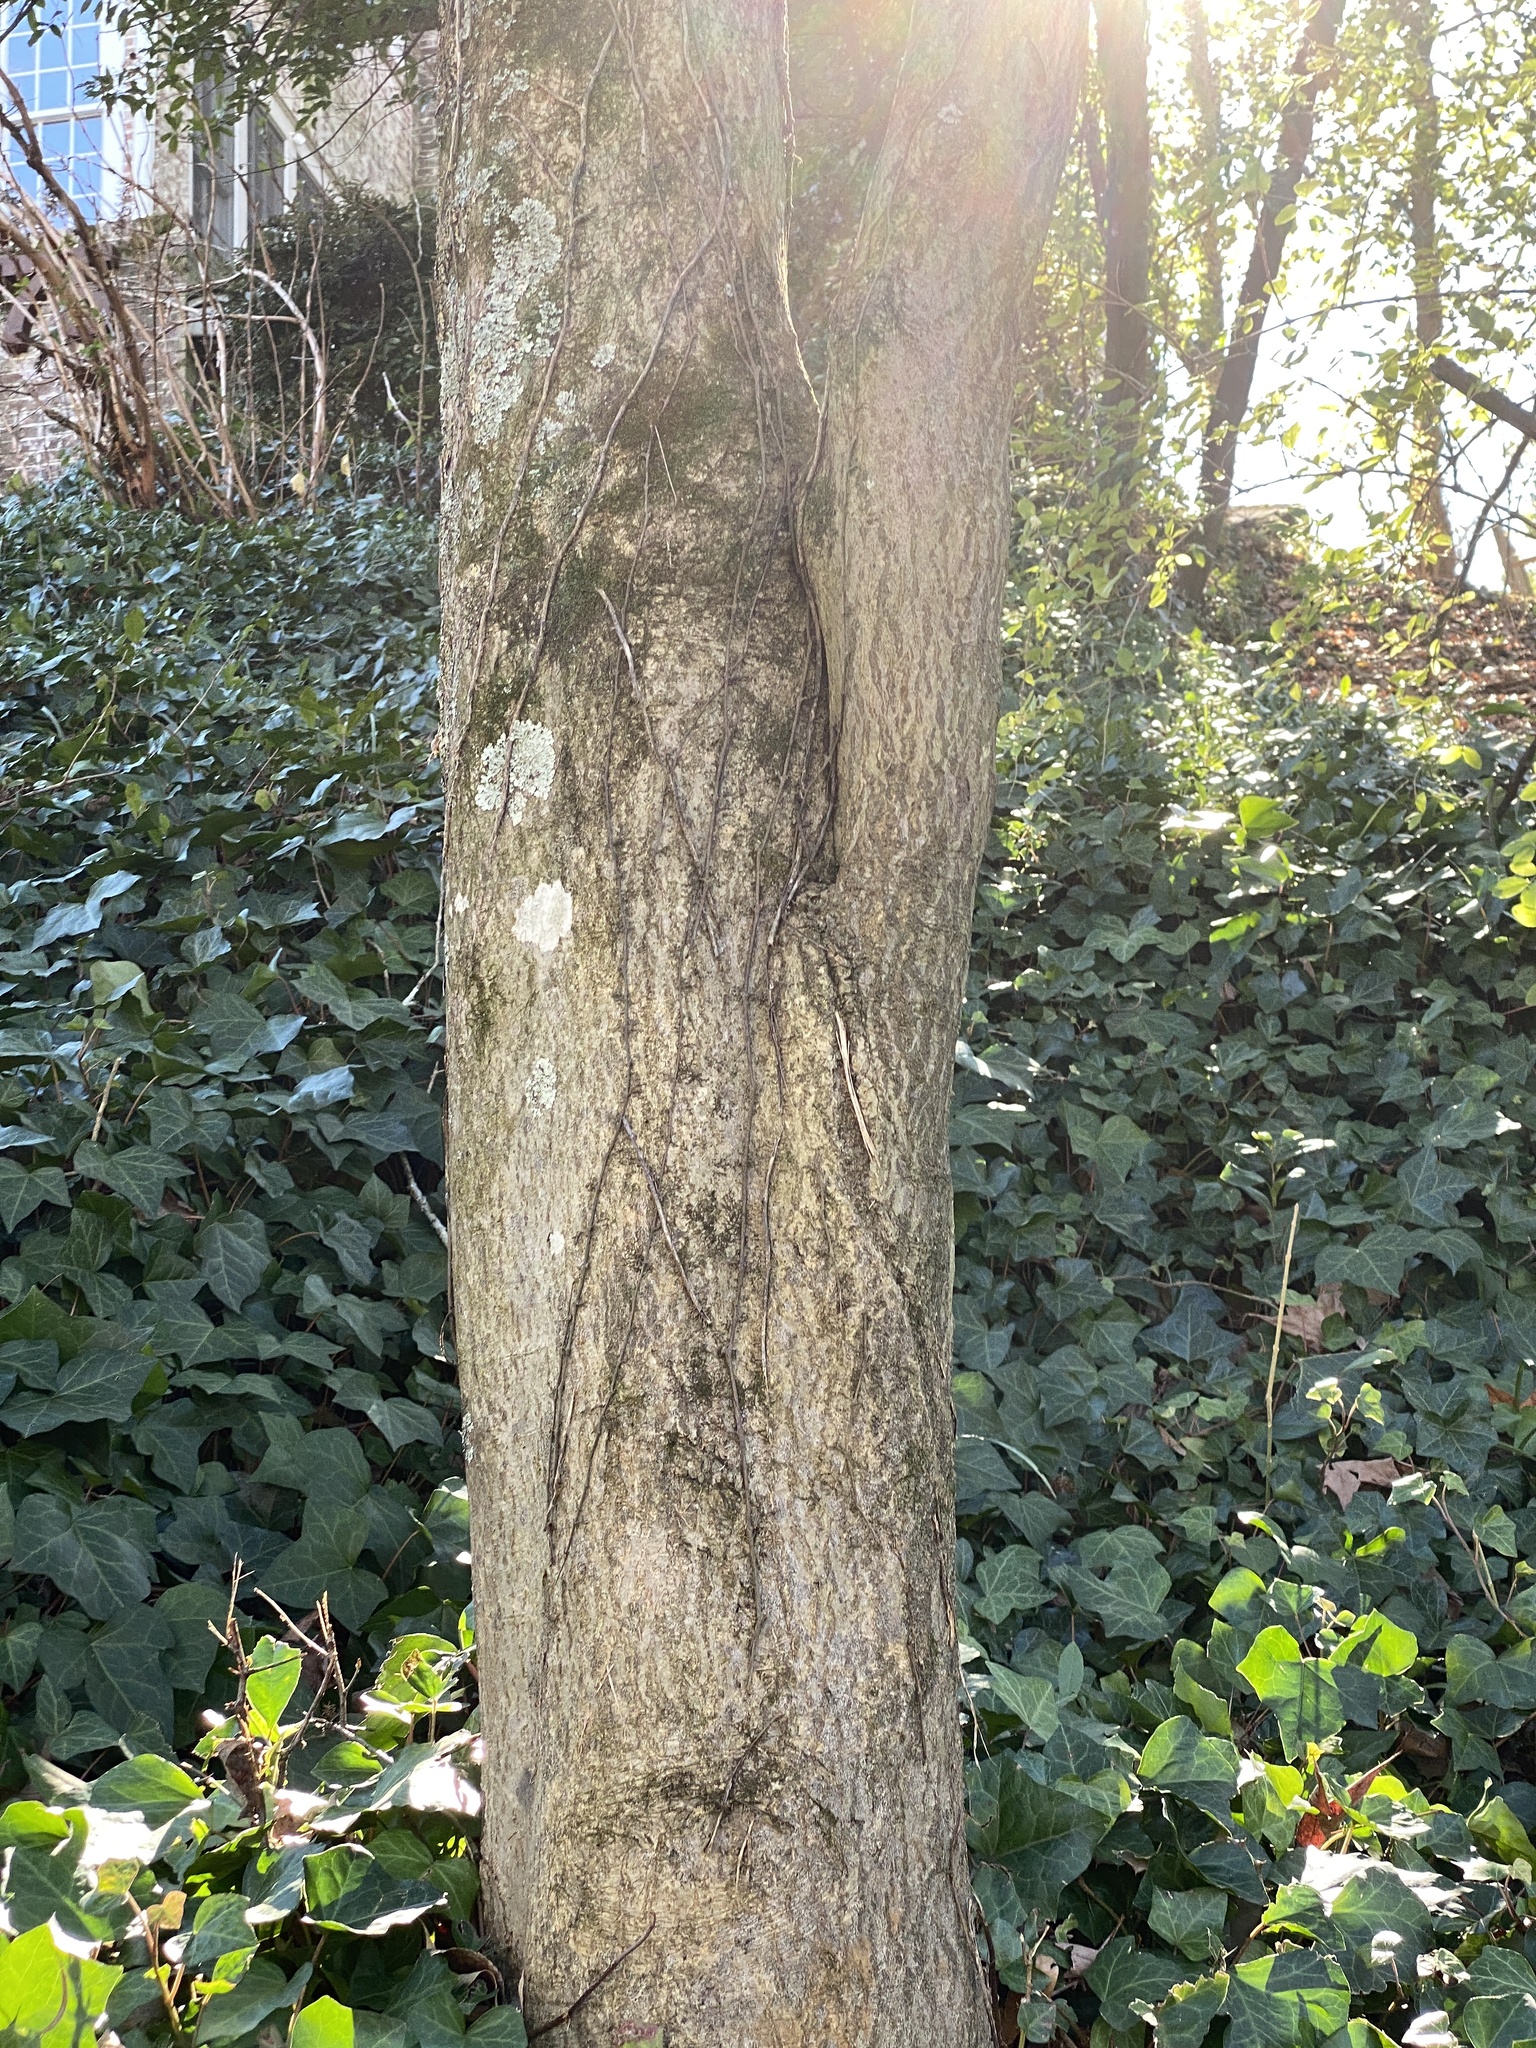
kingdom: Plantae
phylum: Tracheophyta
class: Magnoliopsida
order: Aquifoliales
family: Aquifoliaceae
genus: Ilex
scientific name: Ilex opaca
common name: American holly
